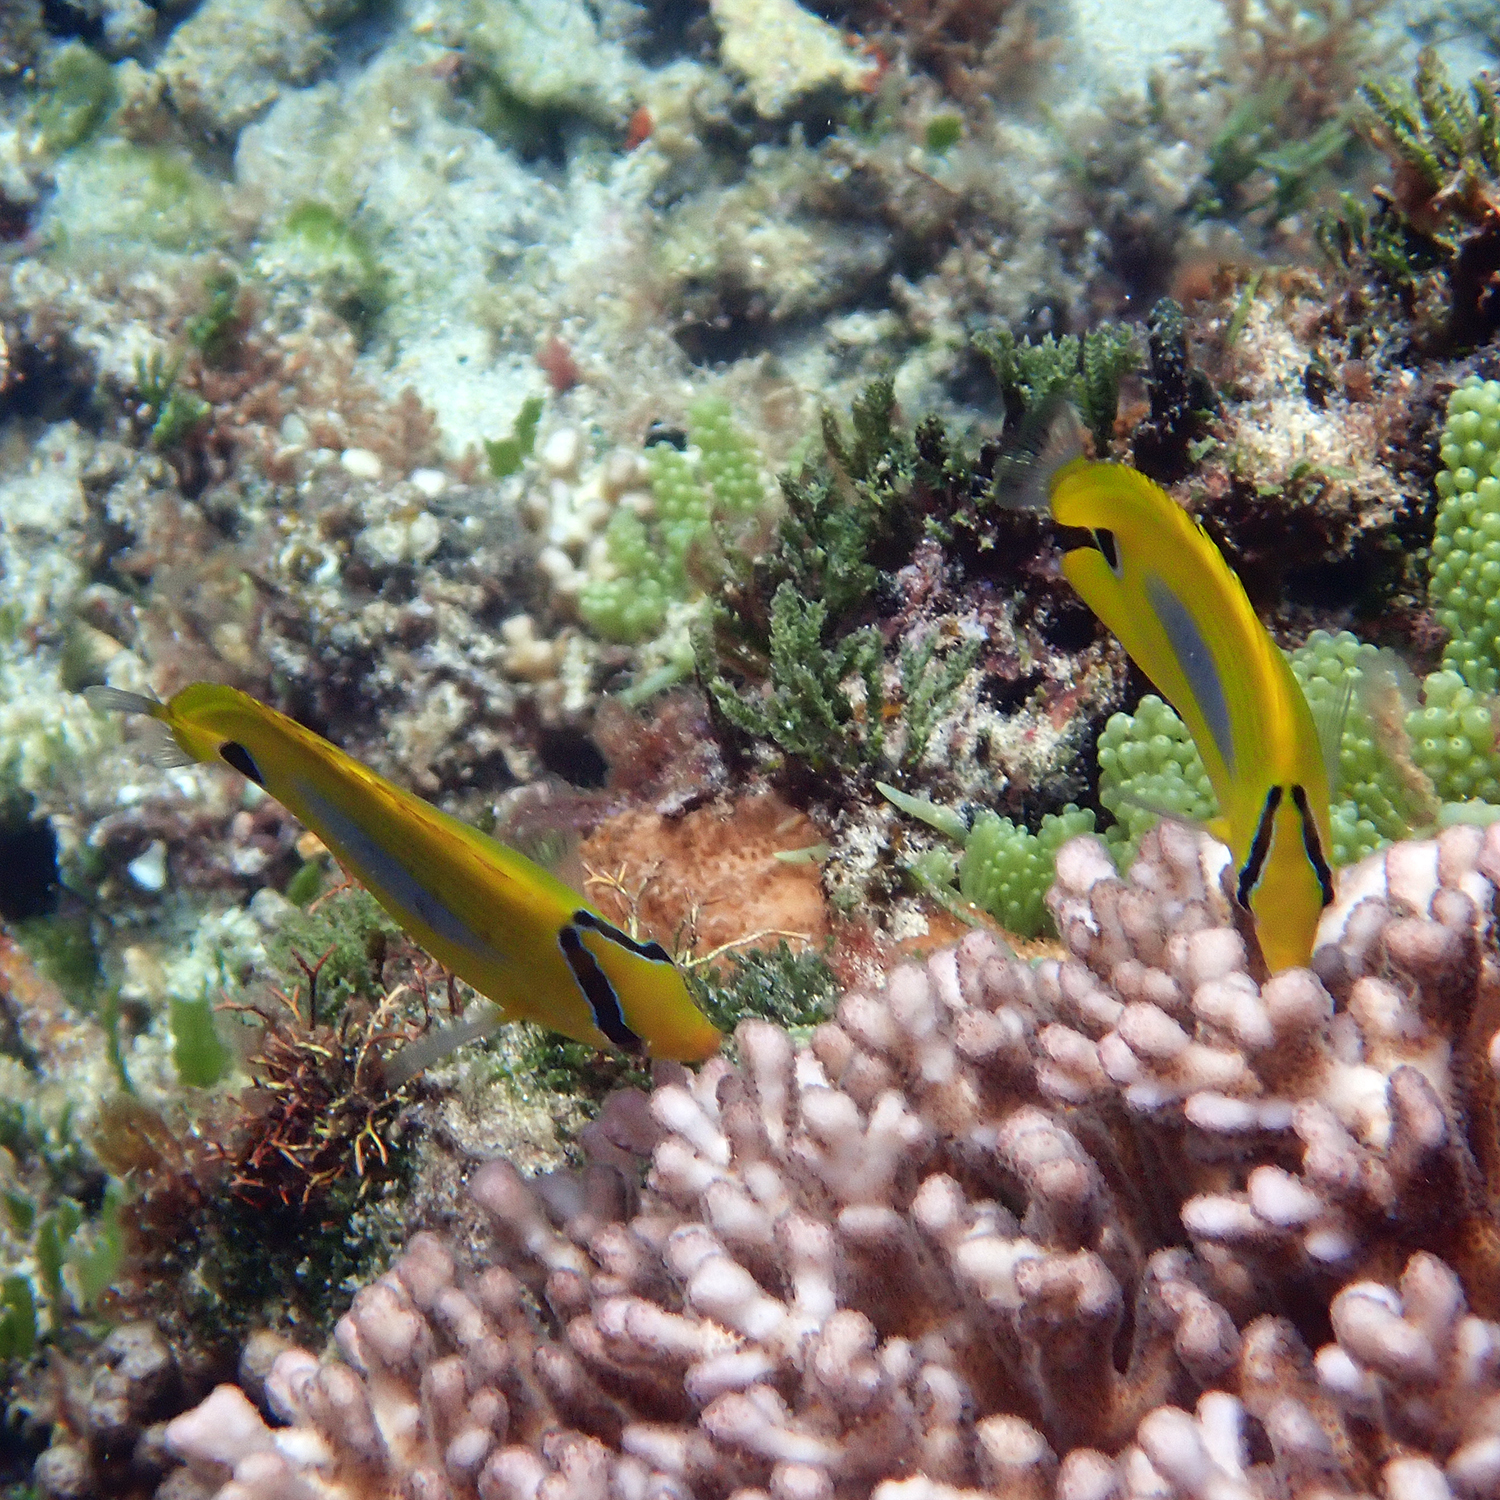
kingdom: Animalia
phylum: Chordata
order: Perciformes
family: Chaetodontidae
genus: Chaetodon
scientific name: Chaetodon plebeius
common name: Bluespot butterflyfish
